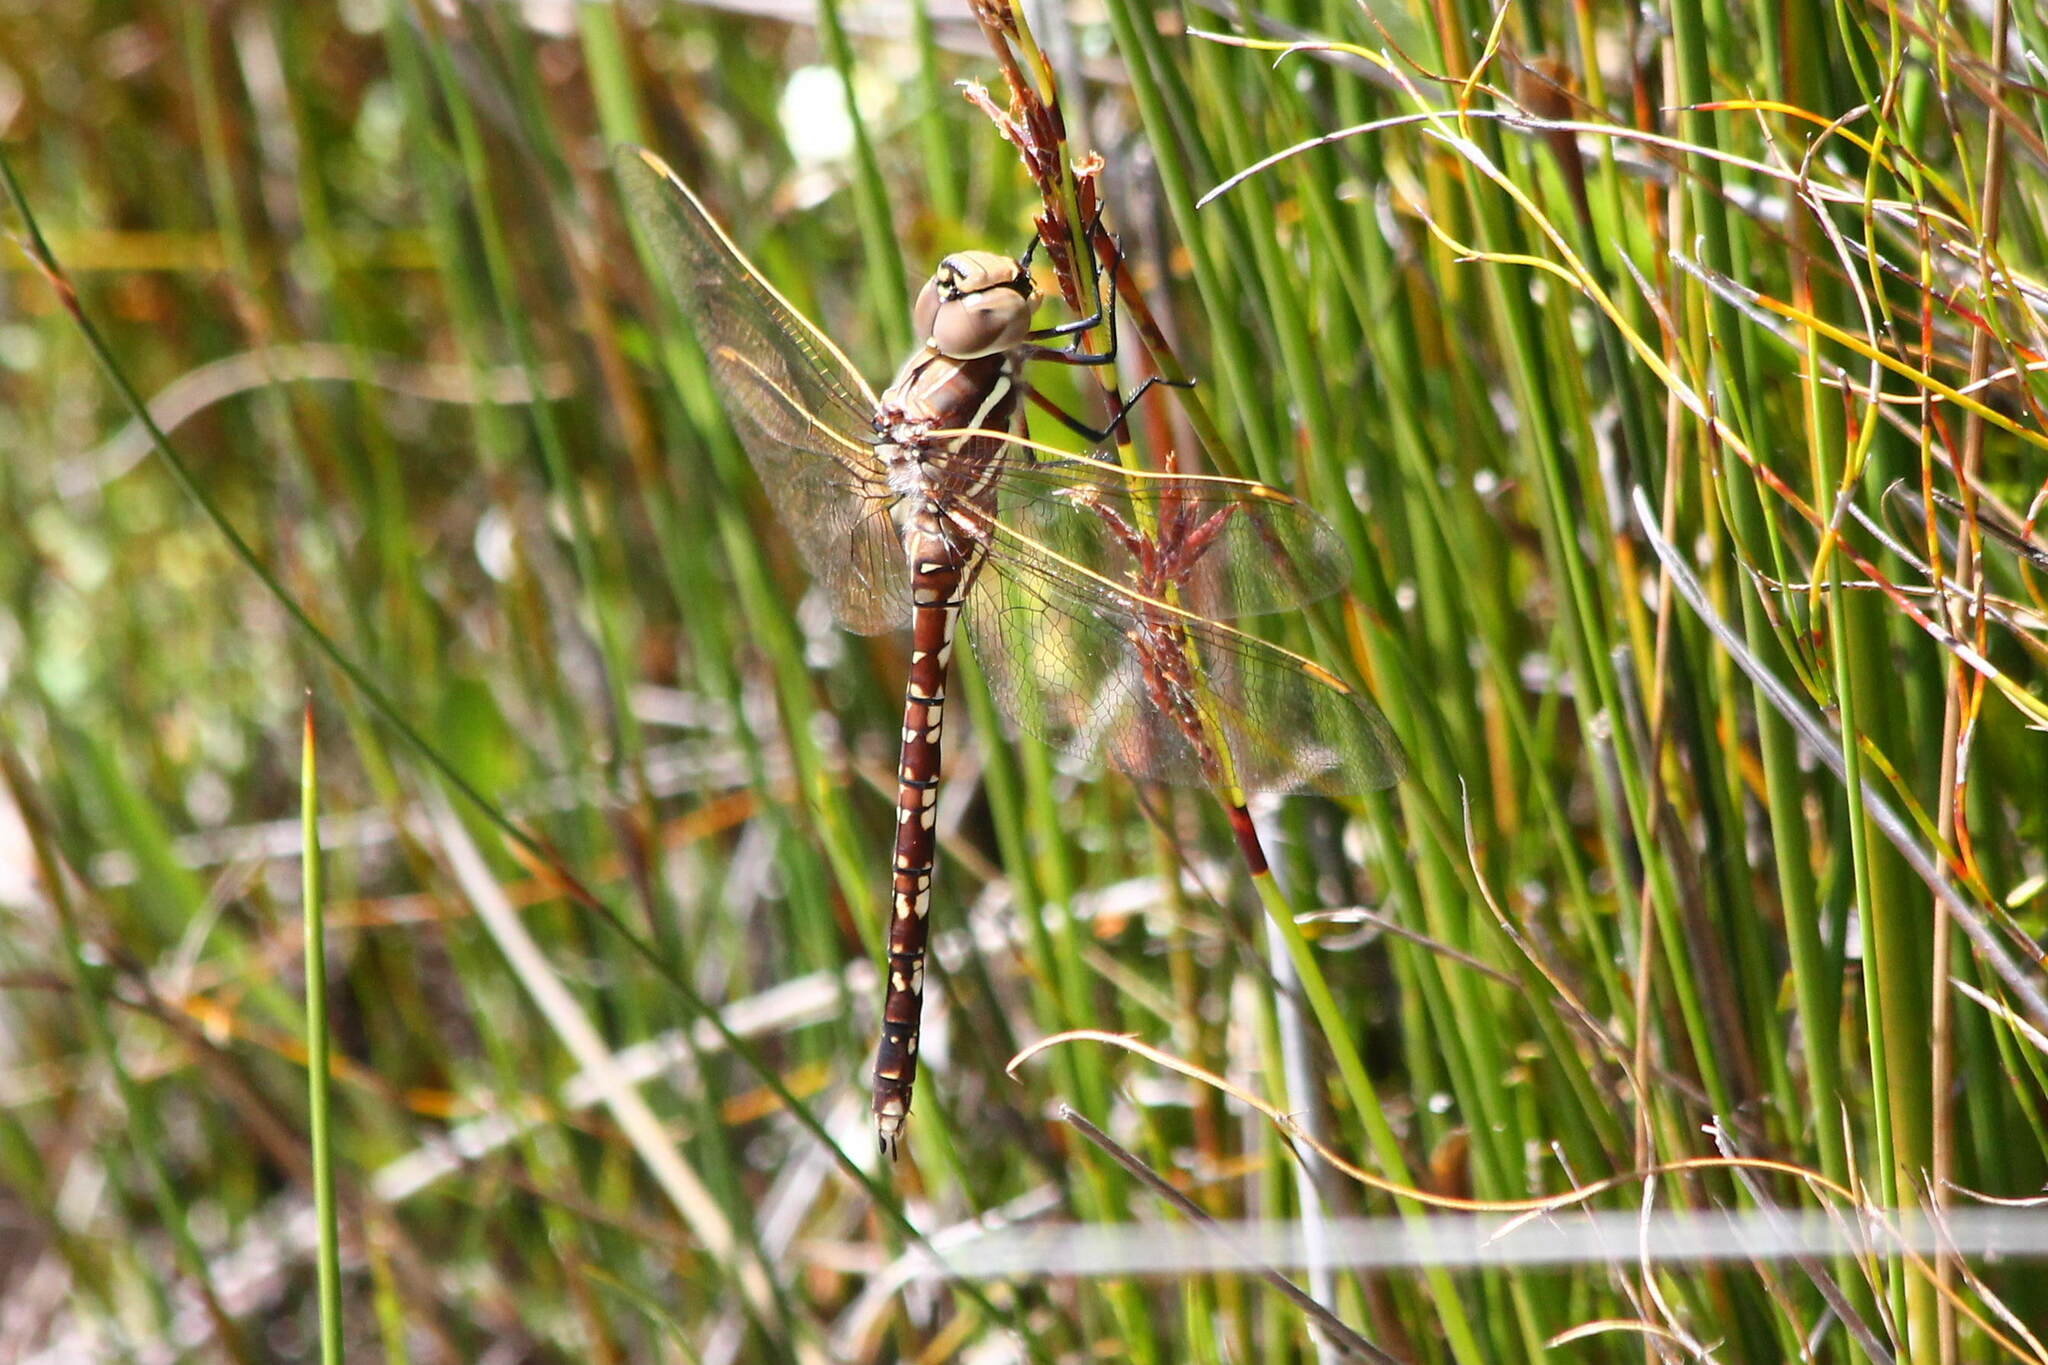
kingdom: Animalia
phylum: Arthropoda
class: Insecta
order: Odonata
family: Aeshnidae
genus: Aeshna
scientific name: Aeshna brevistyla
